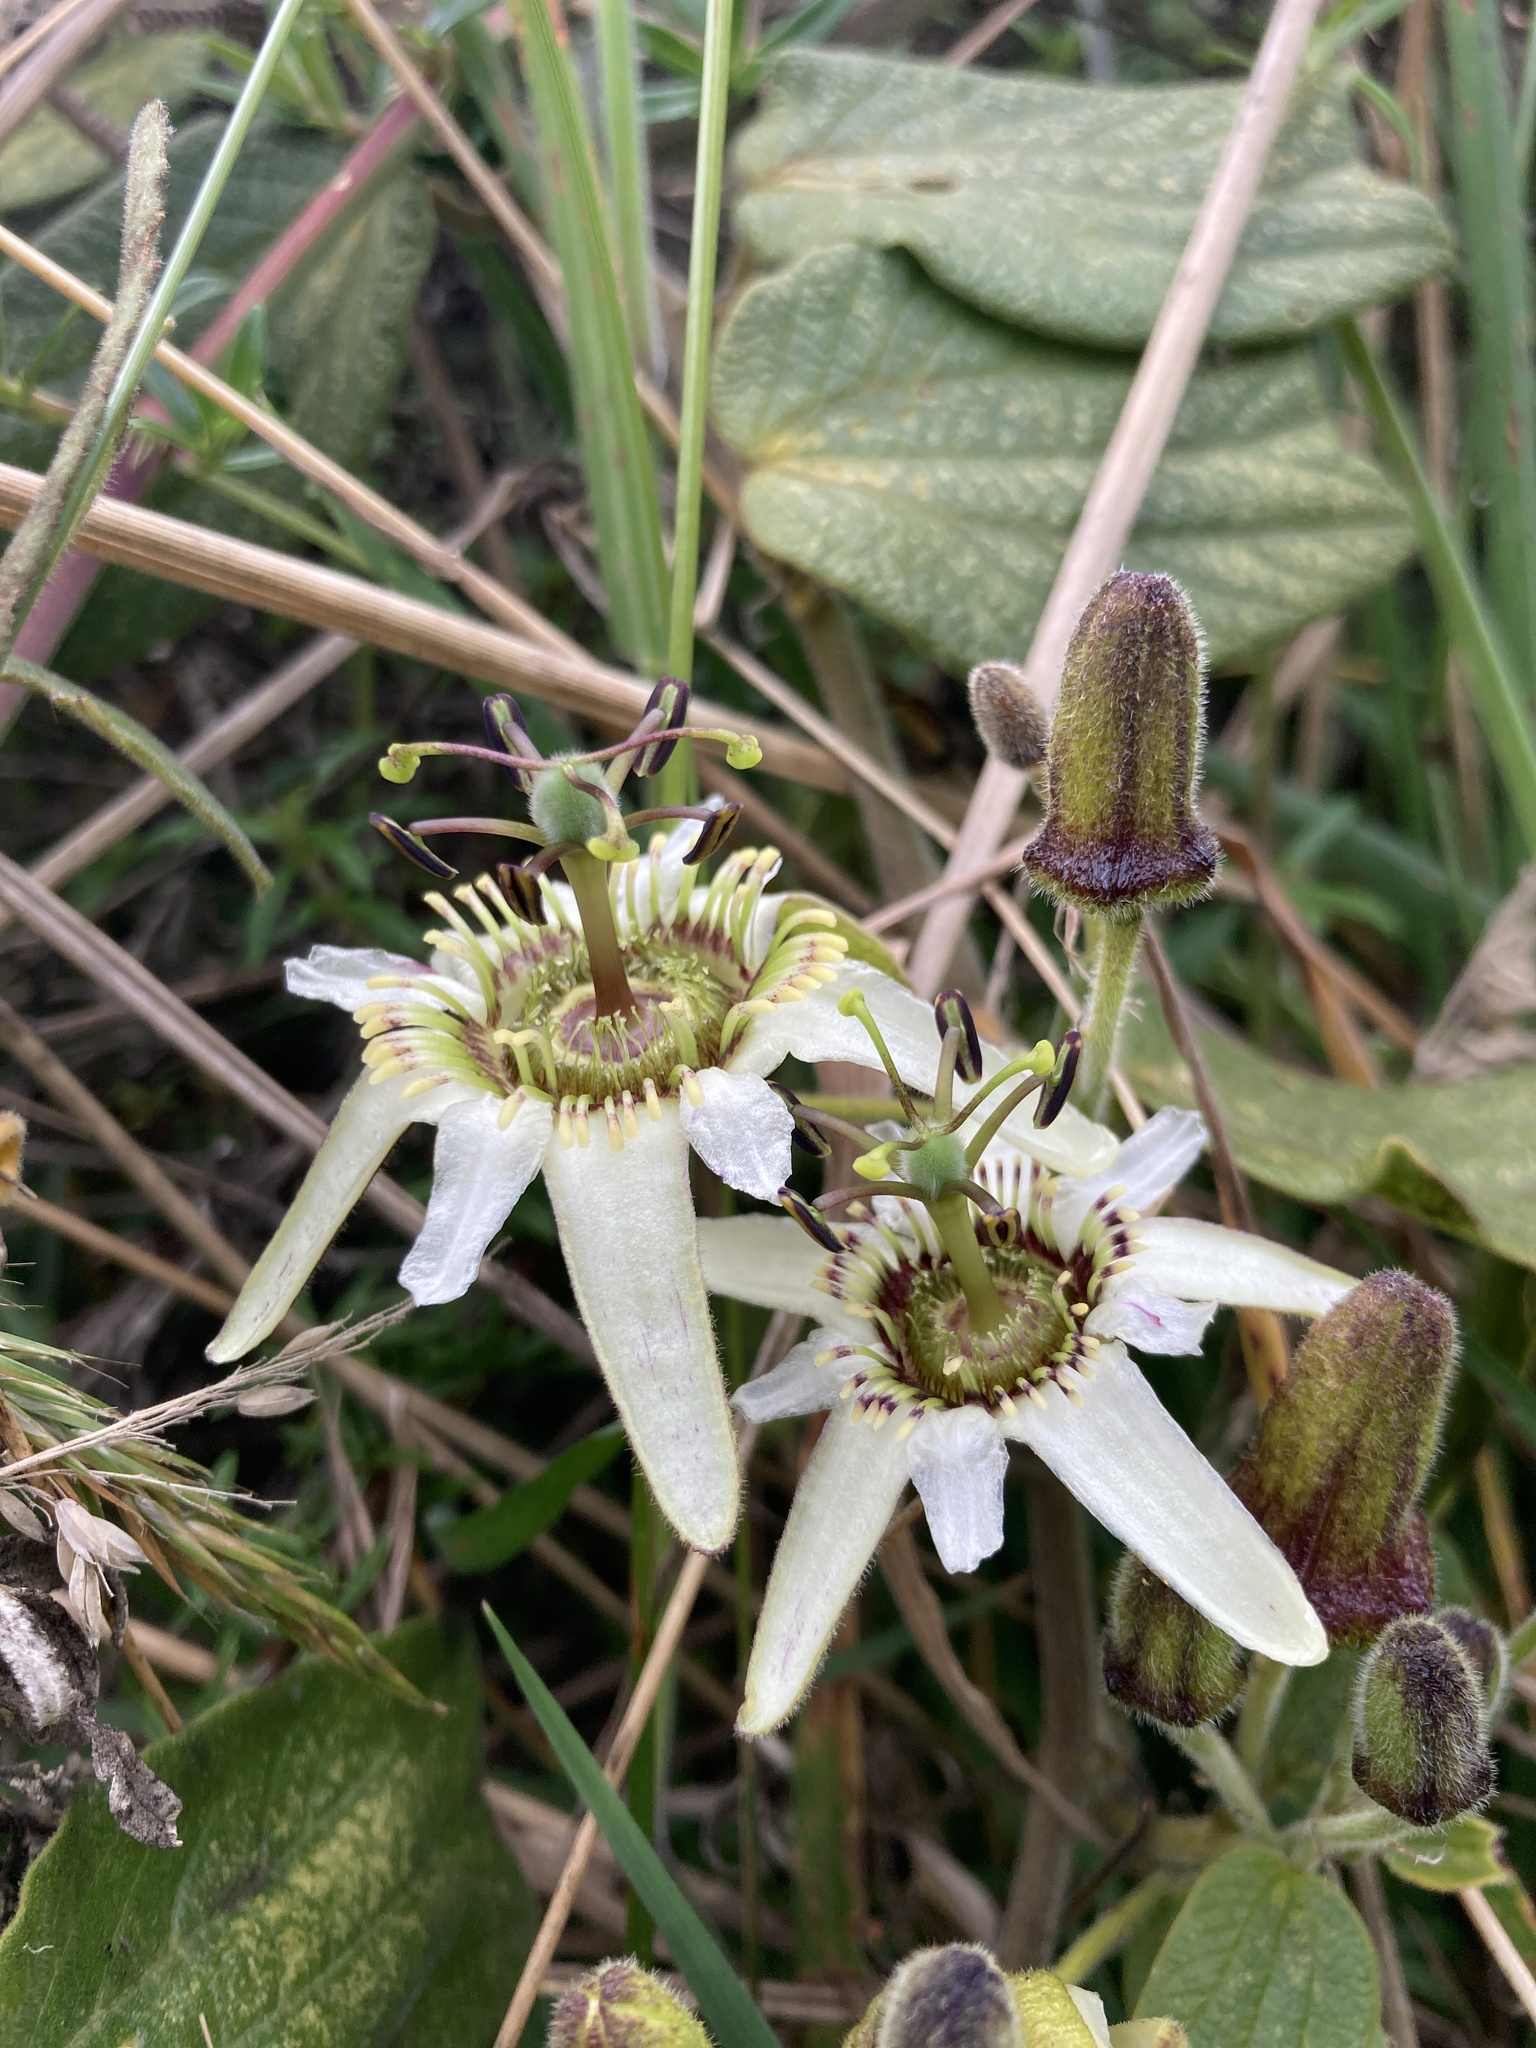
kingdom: Plantae
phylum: Tracheophyta
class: Magnoliopsida
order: Malpighiales
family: Passifloraceae
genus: Passiflora
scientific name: Passiflora bogotensis
